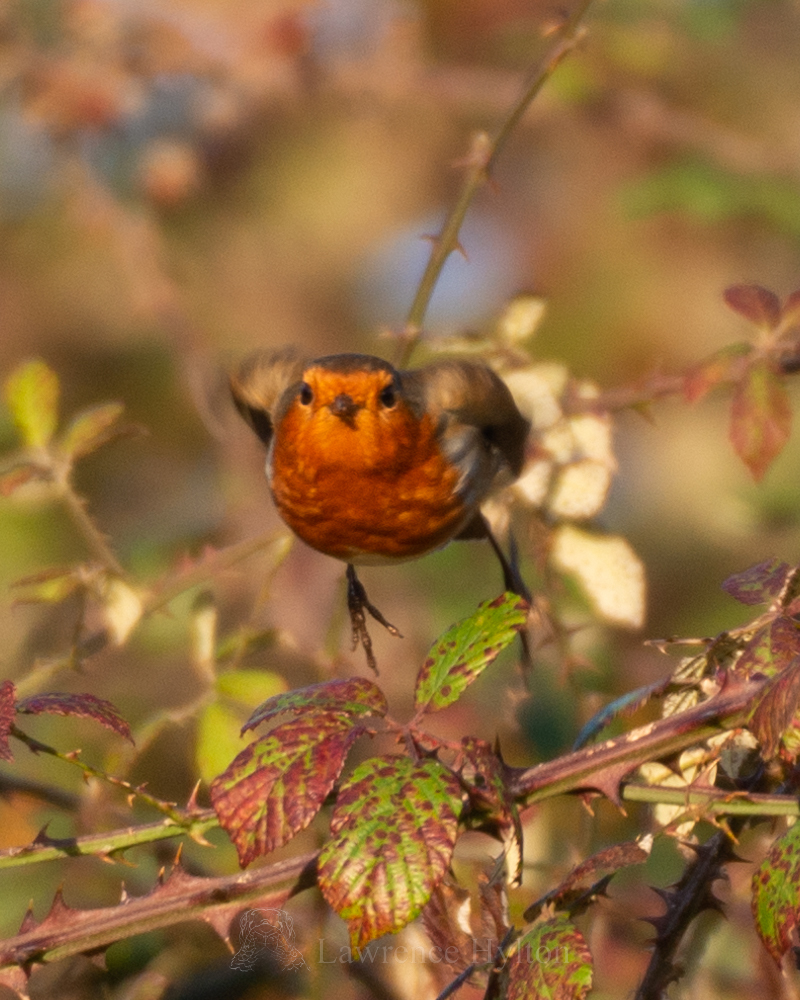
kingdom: Animalia
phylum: Chordata
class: Aves
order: Passeriformes
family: Muscicapidae
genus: Erithacus
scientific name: Erithacus rubecula
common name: European robin
